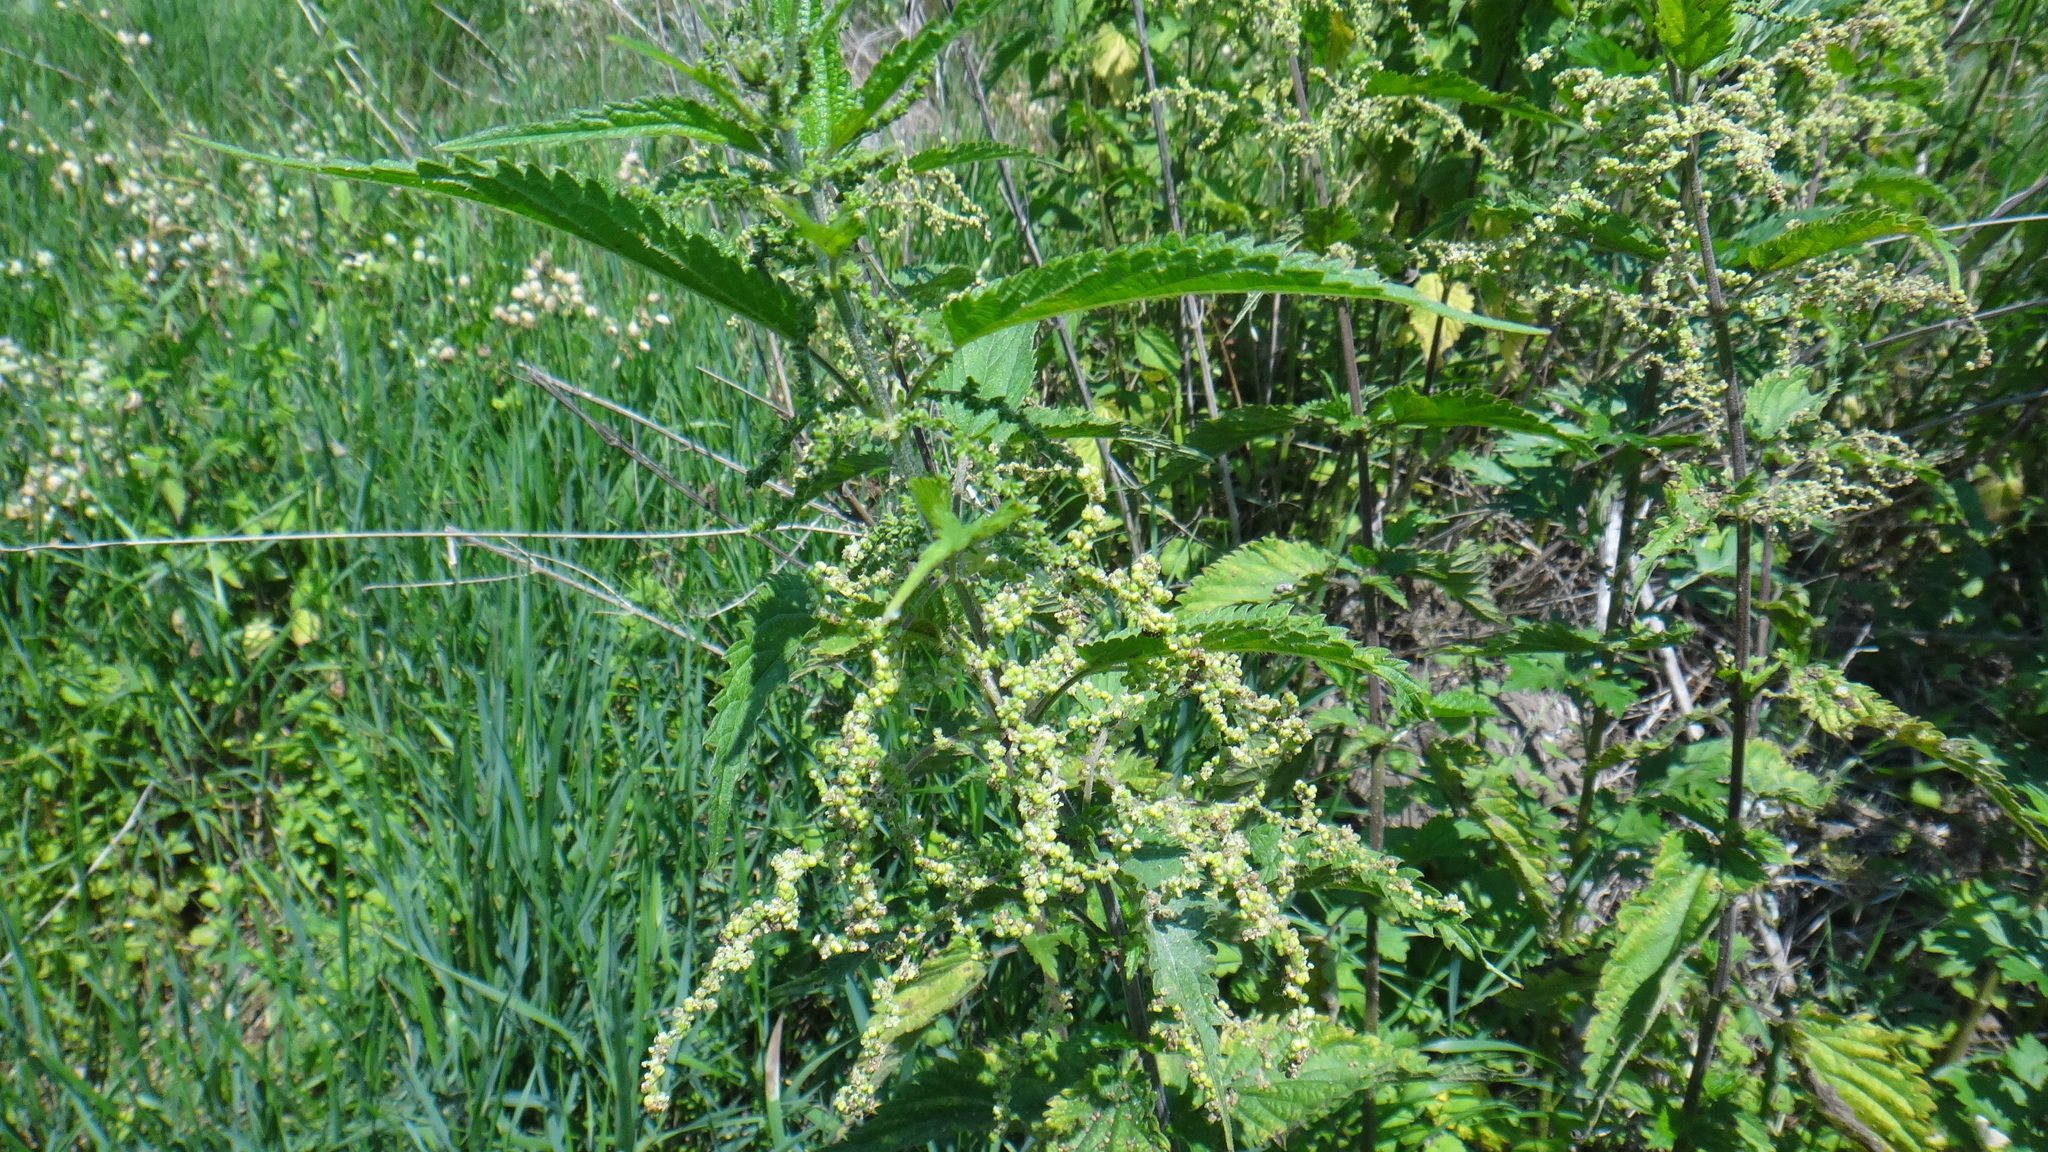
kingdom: Plantae
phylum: Tracheophyta
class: Magnoliopsida
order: Rosales
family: Urticaceae
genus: Urtica
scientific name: Urtica dioica
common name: Common nettle
